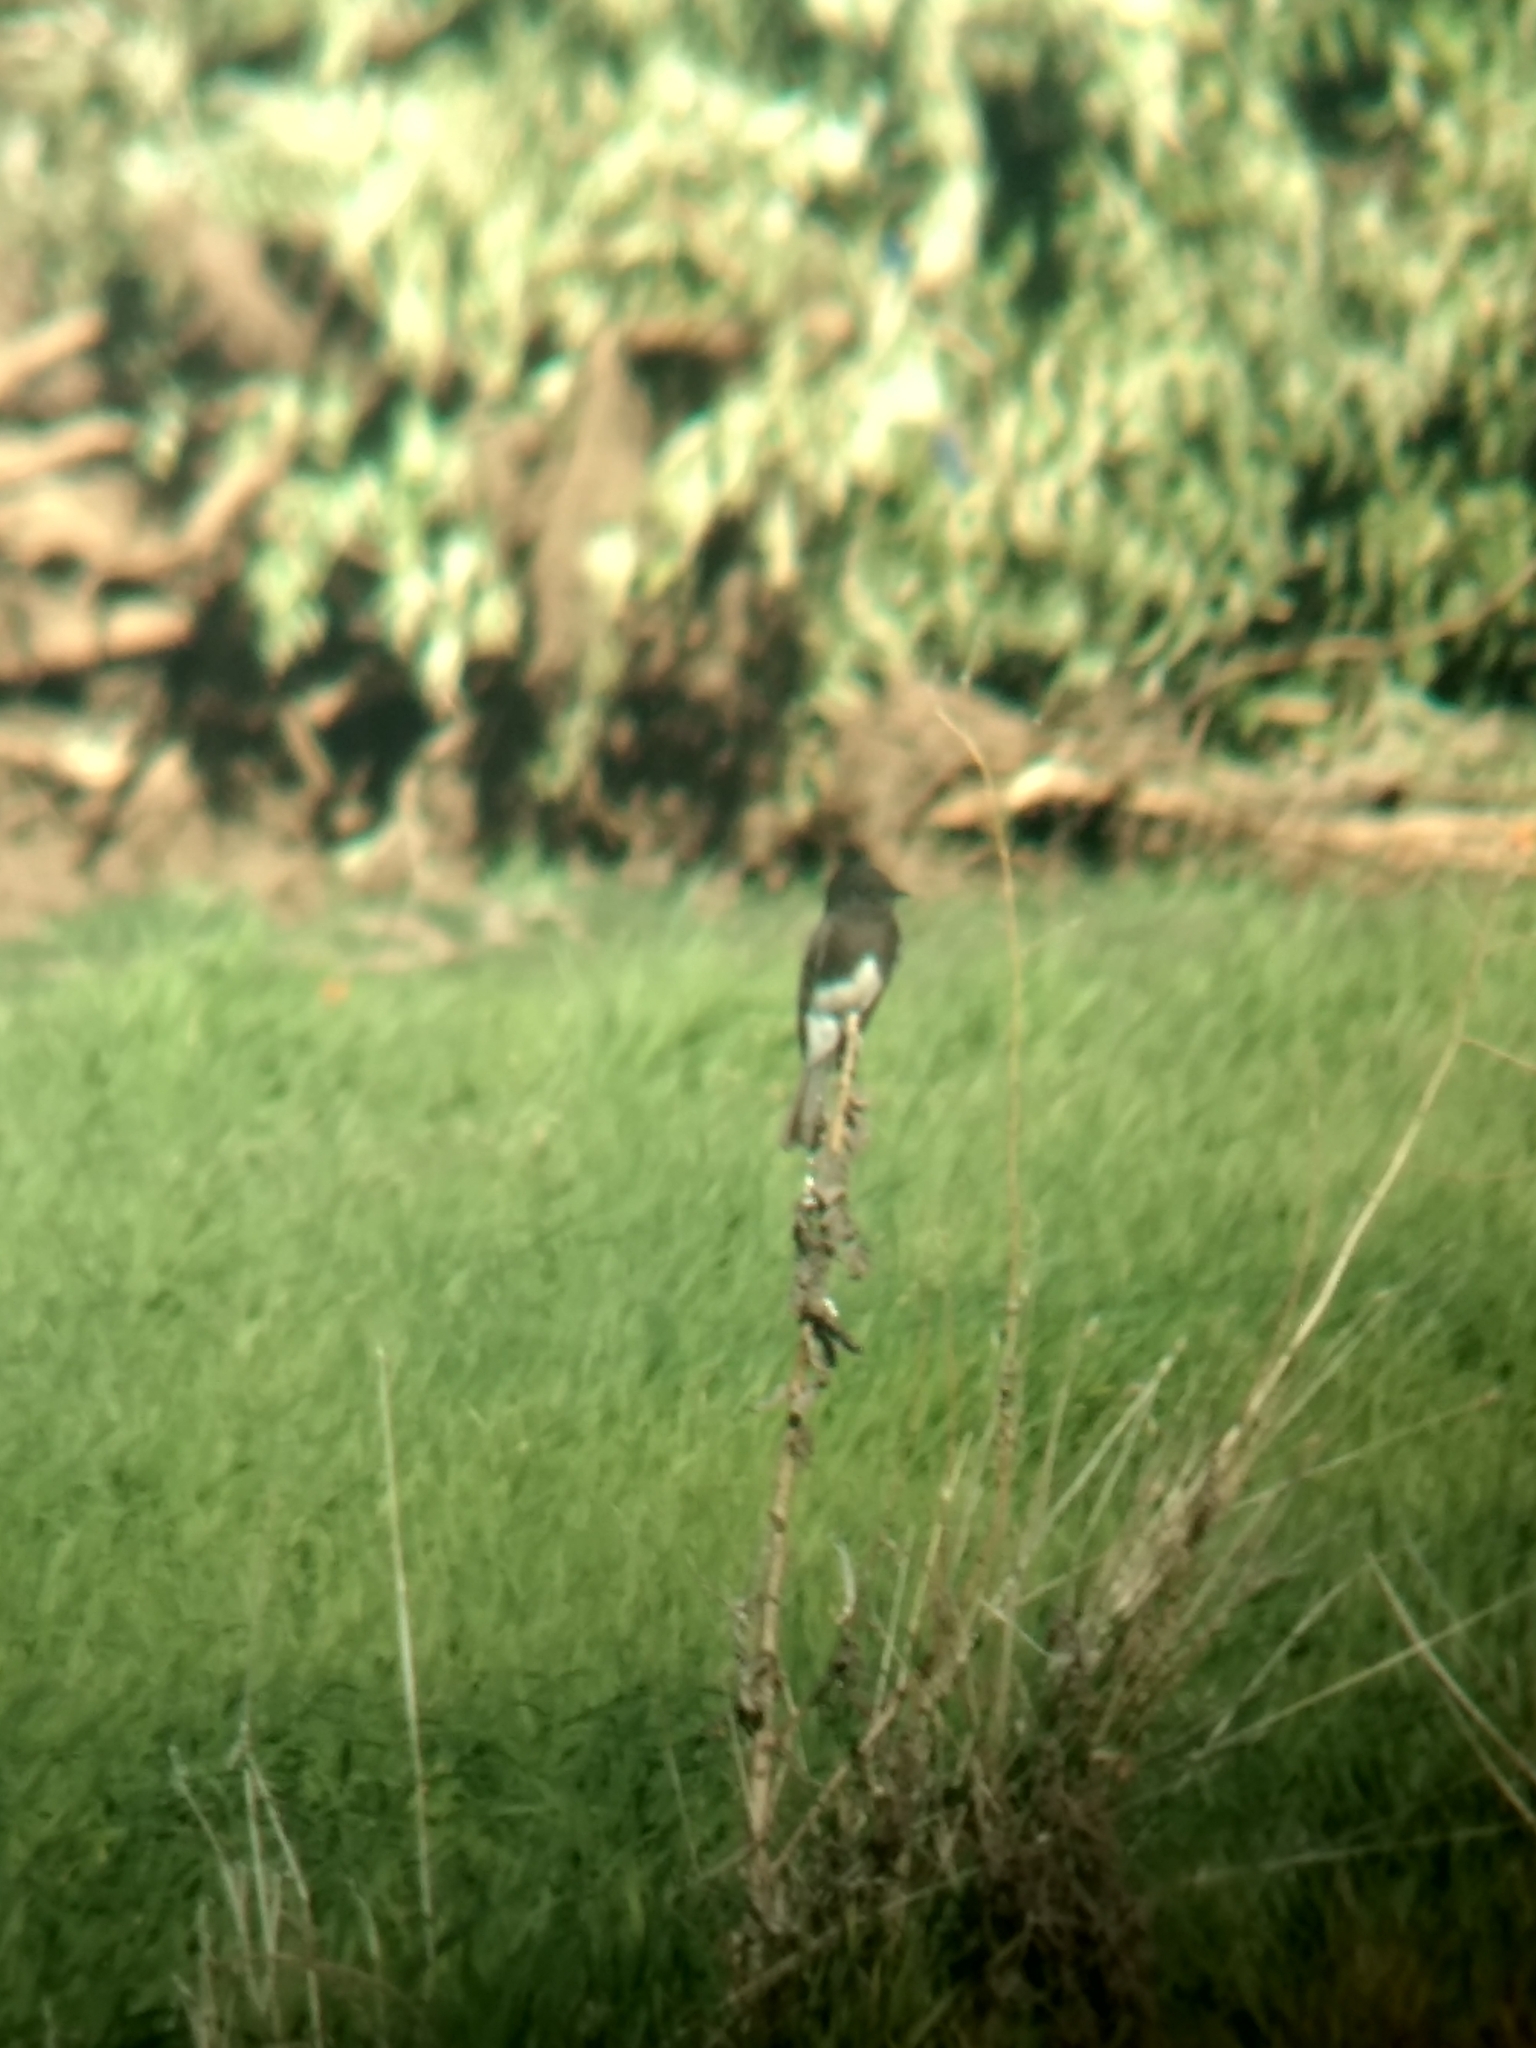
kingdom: Animalia
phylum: Chordata
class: Aves
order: Passeriformes
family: Tyrannidae
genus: Sayornis
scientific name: Sayornis nigricans
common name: Black phoebe
